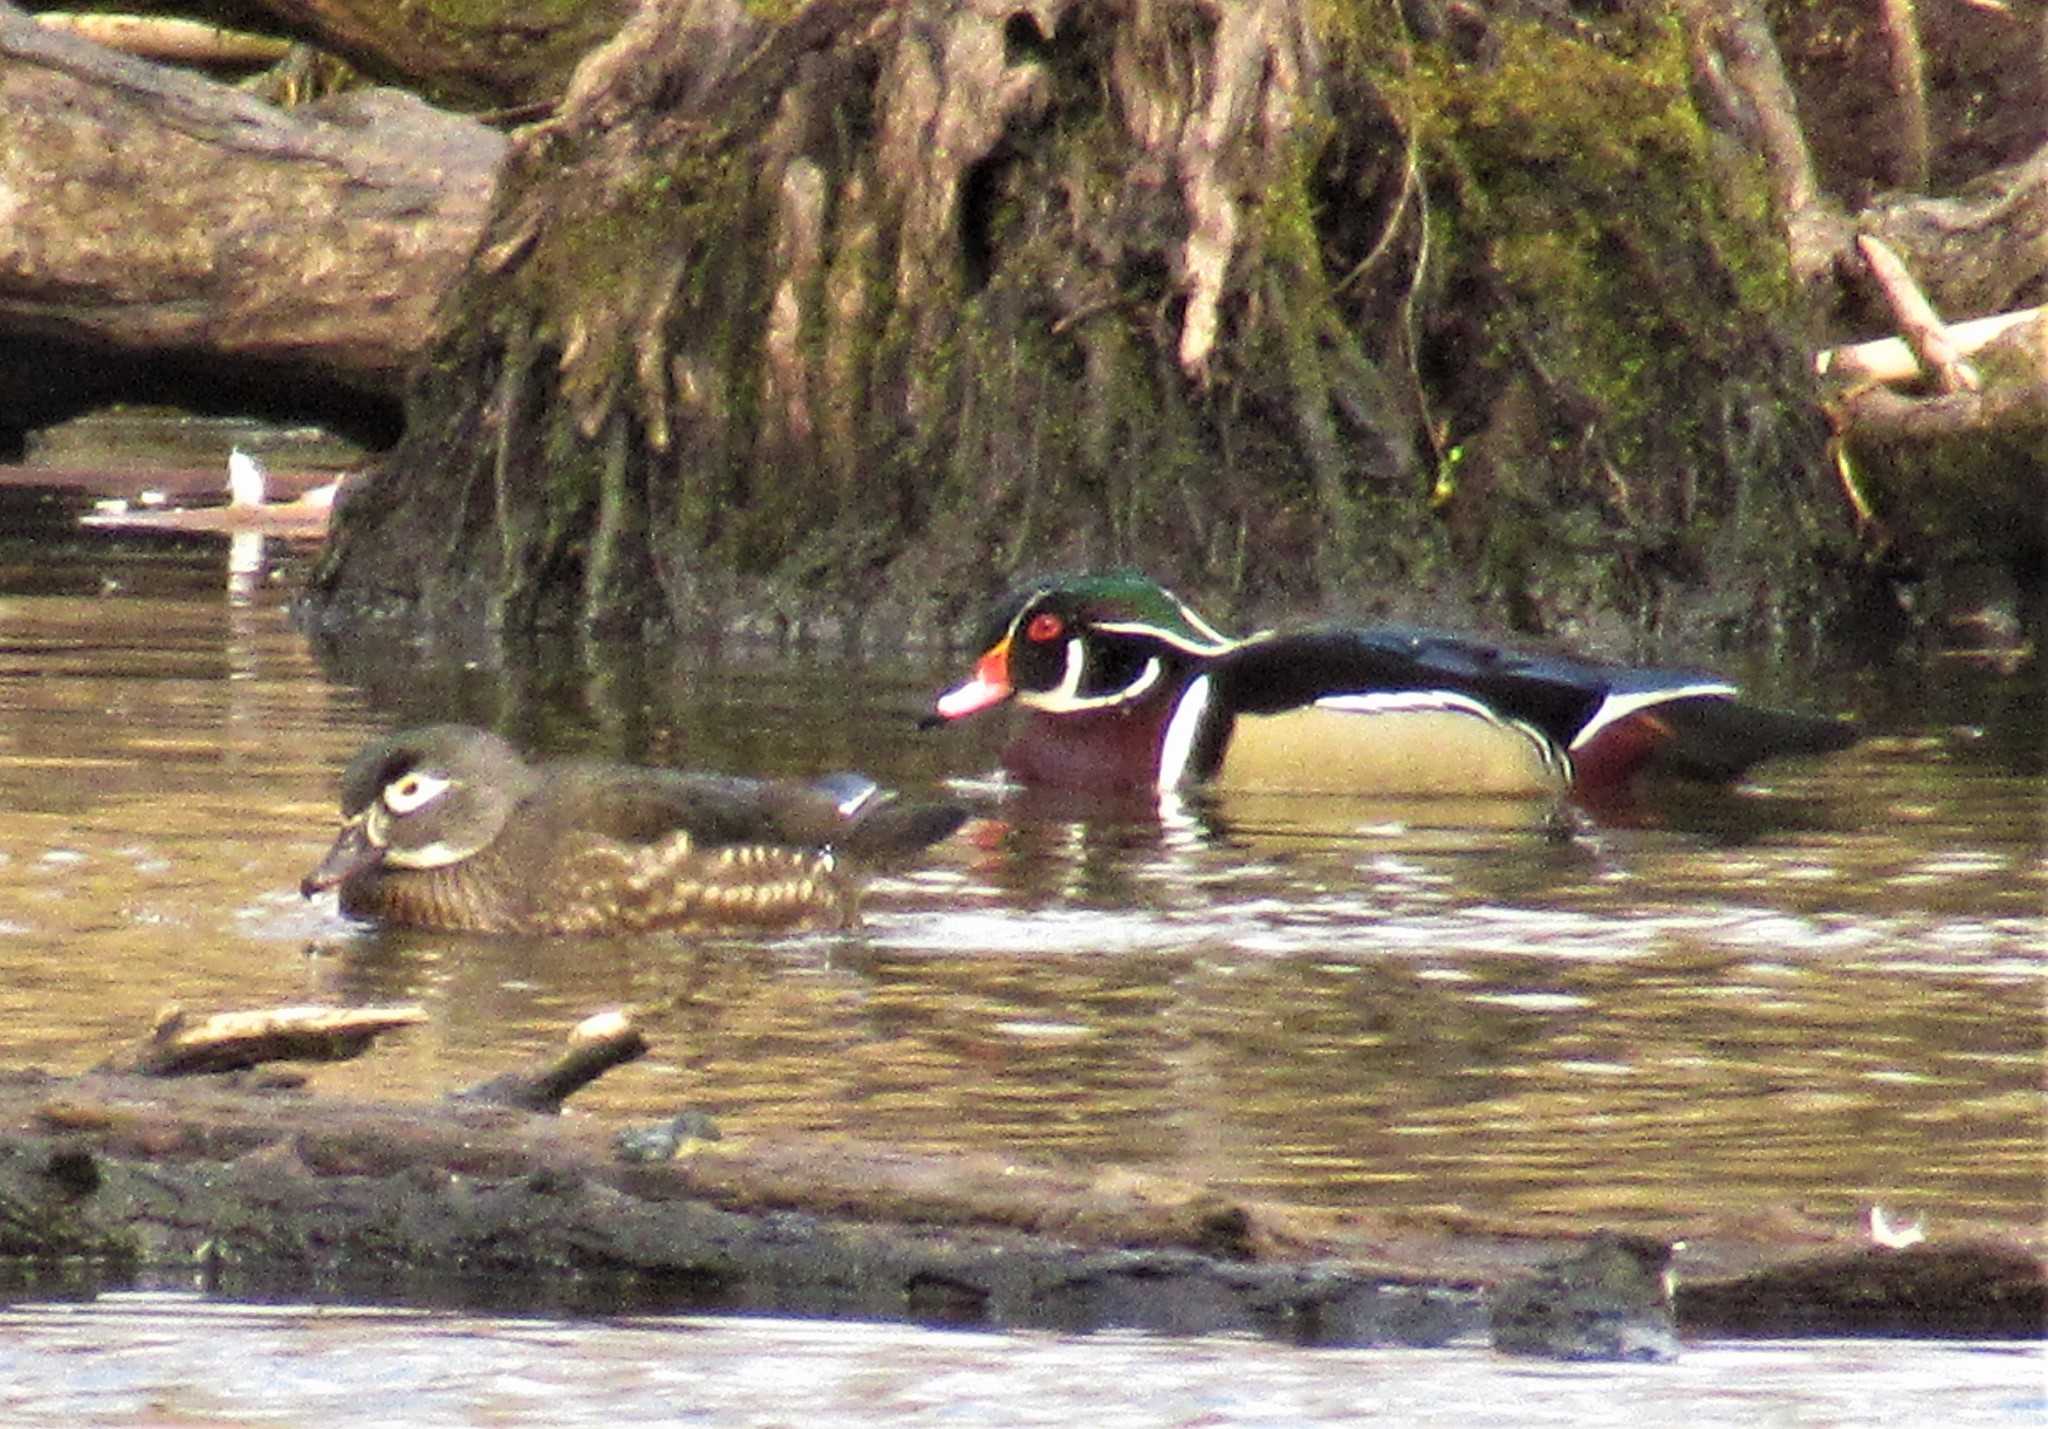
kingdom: Animalia
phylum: Chordata
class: Aves
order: Anseriformes
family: Anatidae
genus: Aix
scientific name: Aix sponsa
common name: Wood duck
